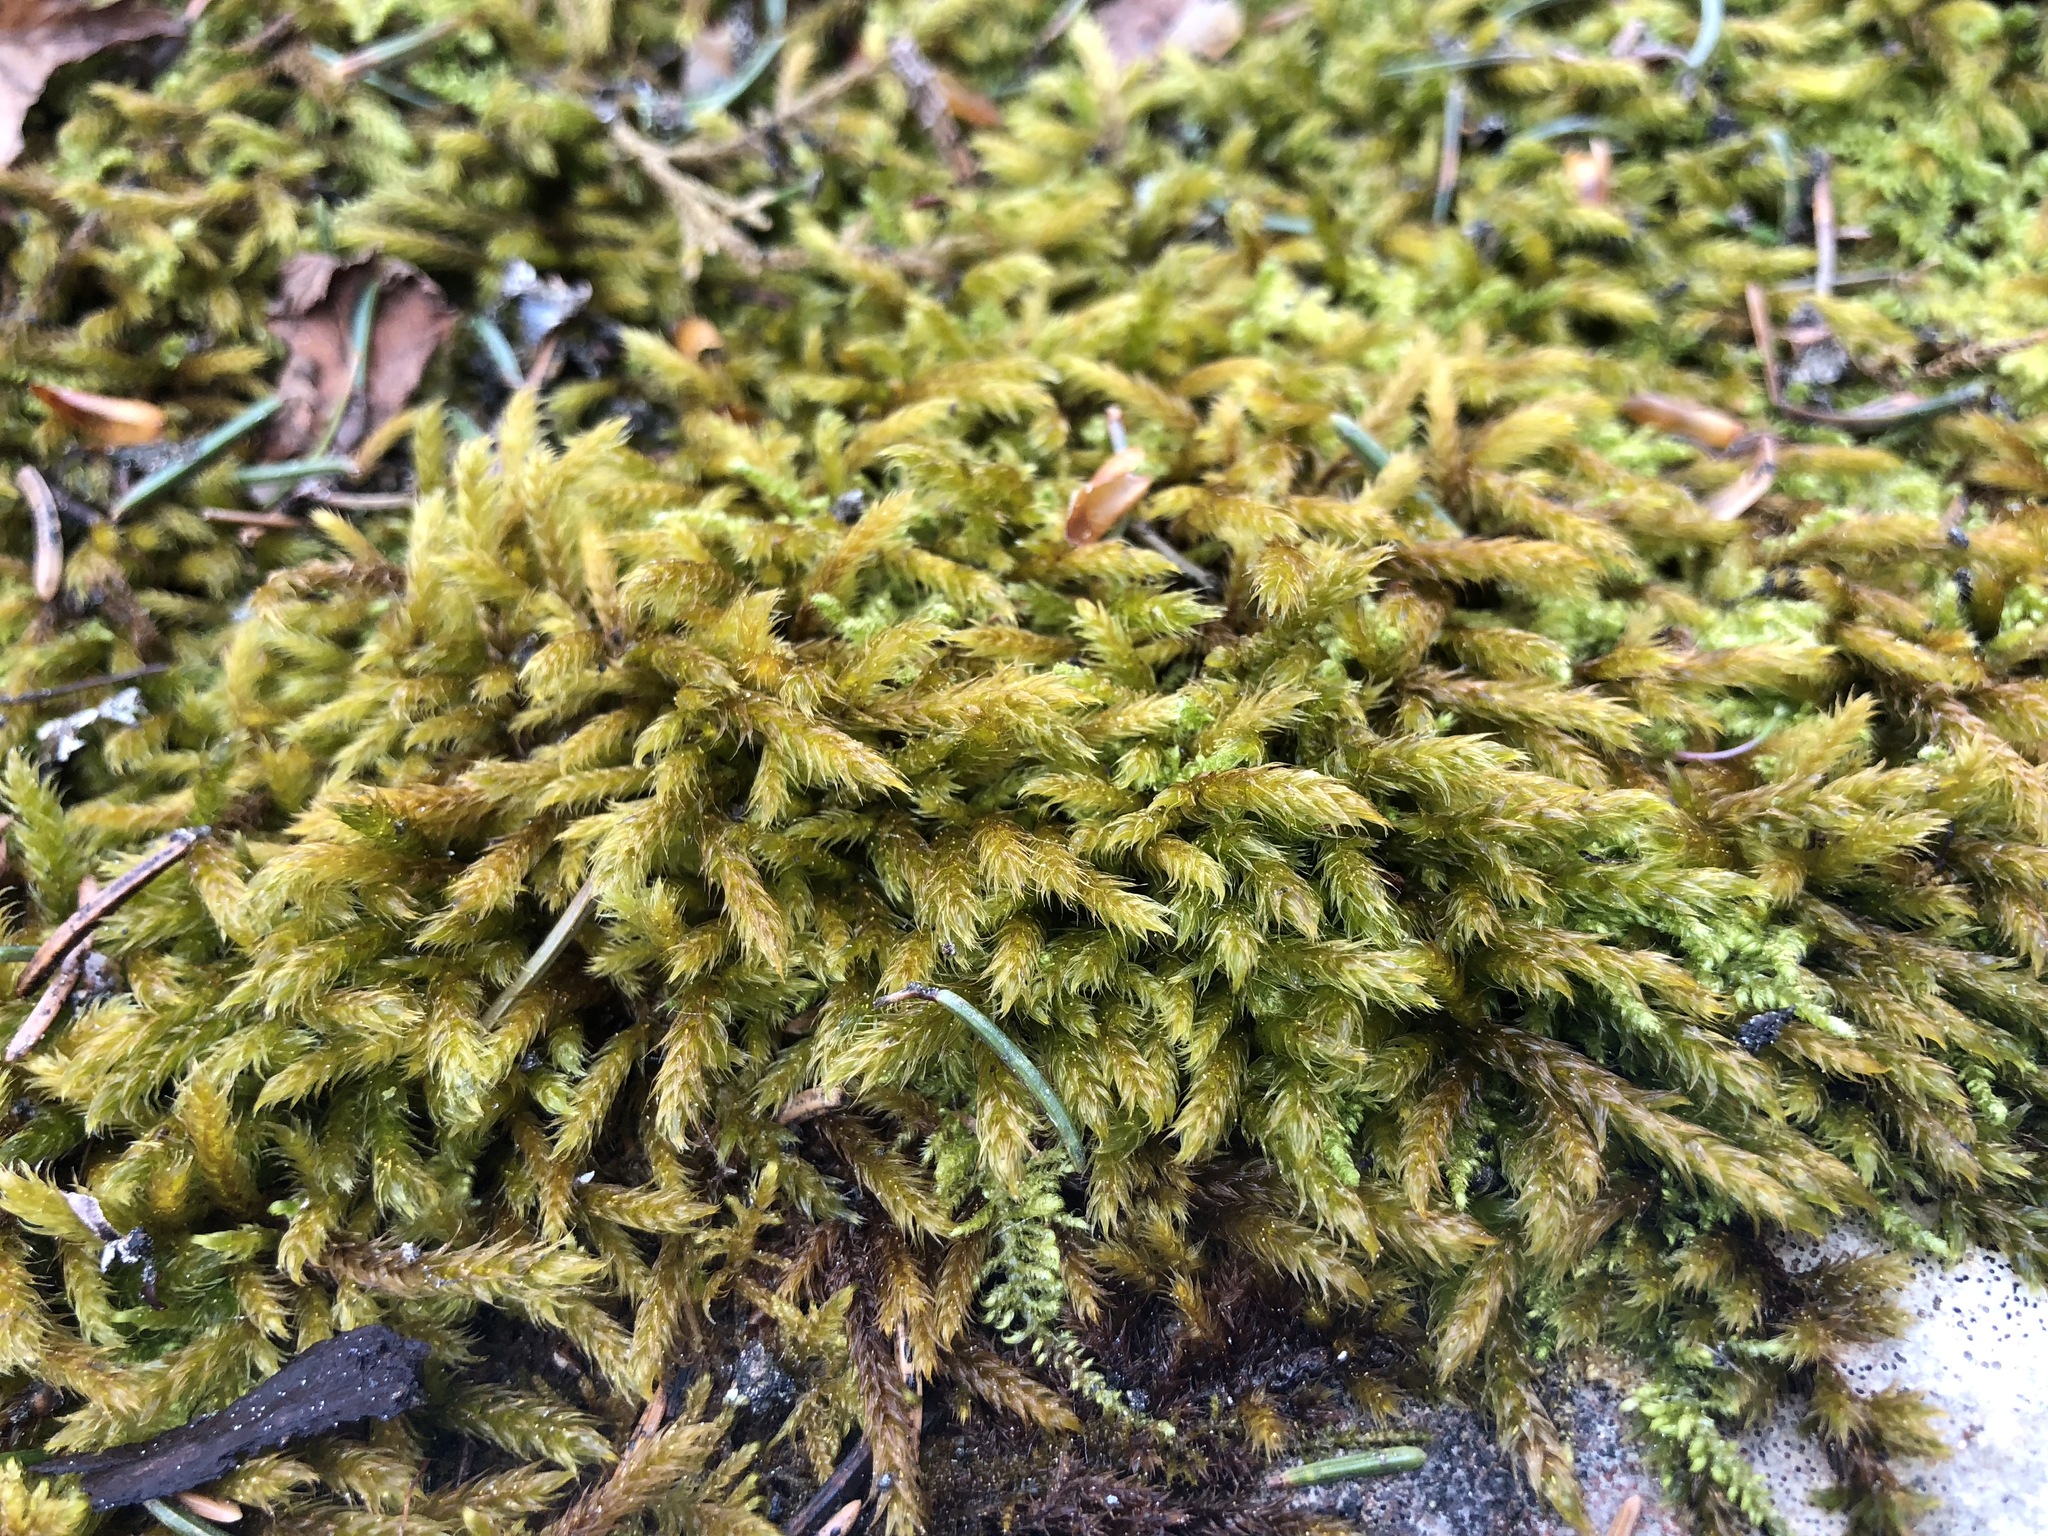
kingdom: Plantae
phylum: Bryophyta
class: Bryopsida
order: Hypnales
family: Hypnaceae
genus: Hypnum
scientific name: Hypnum cupressiforme
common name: Cypress-leaved plait-moss
